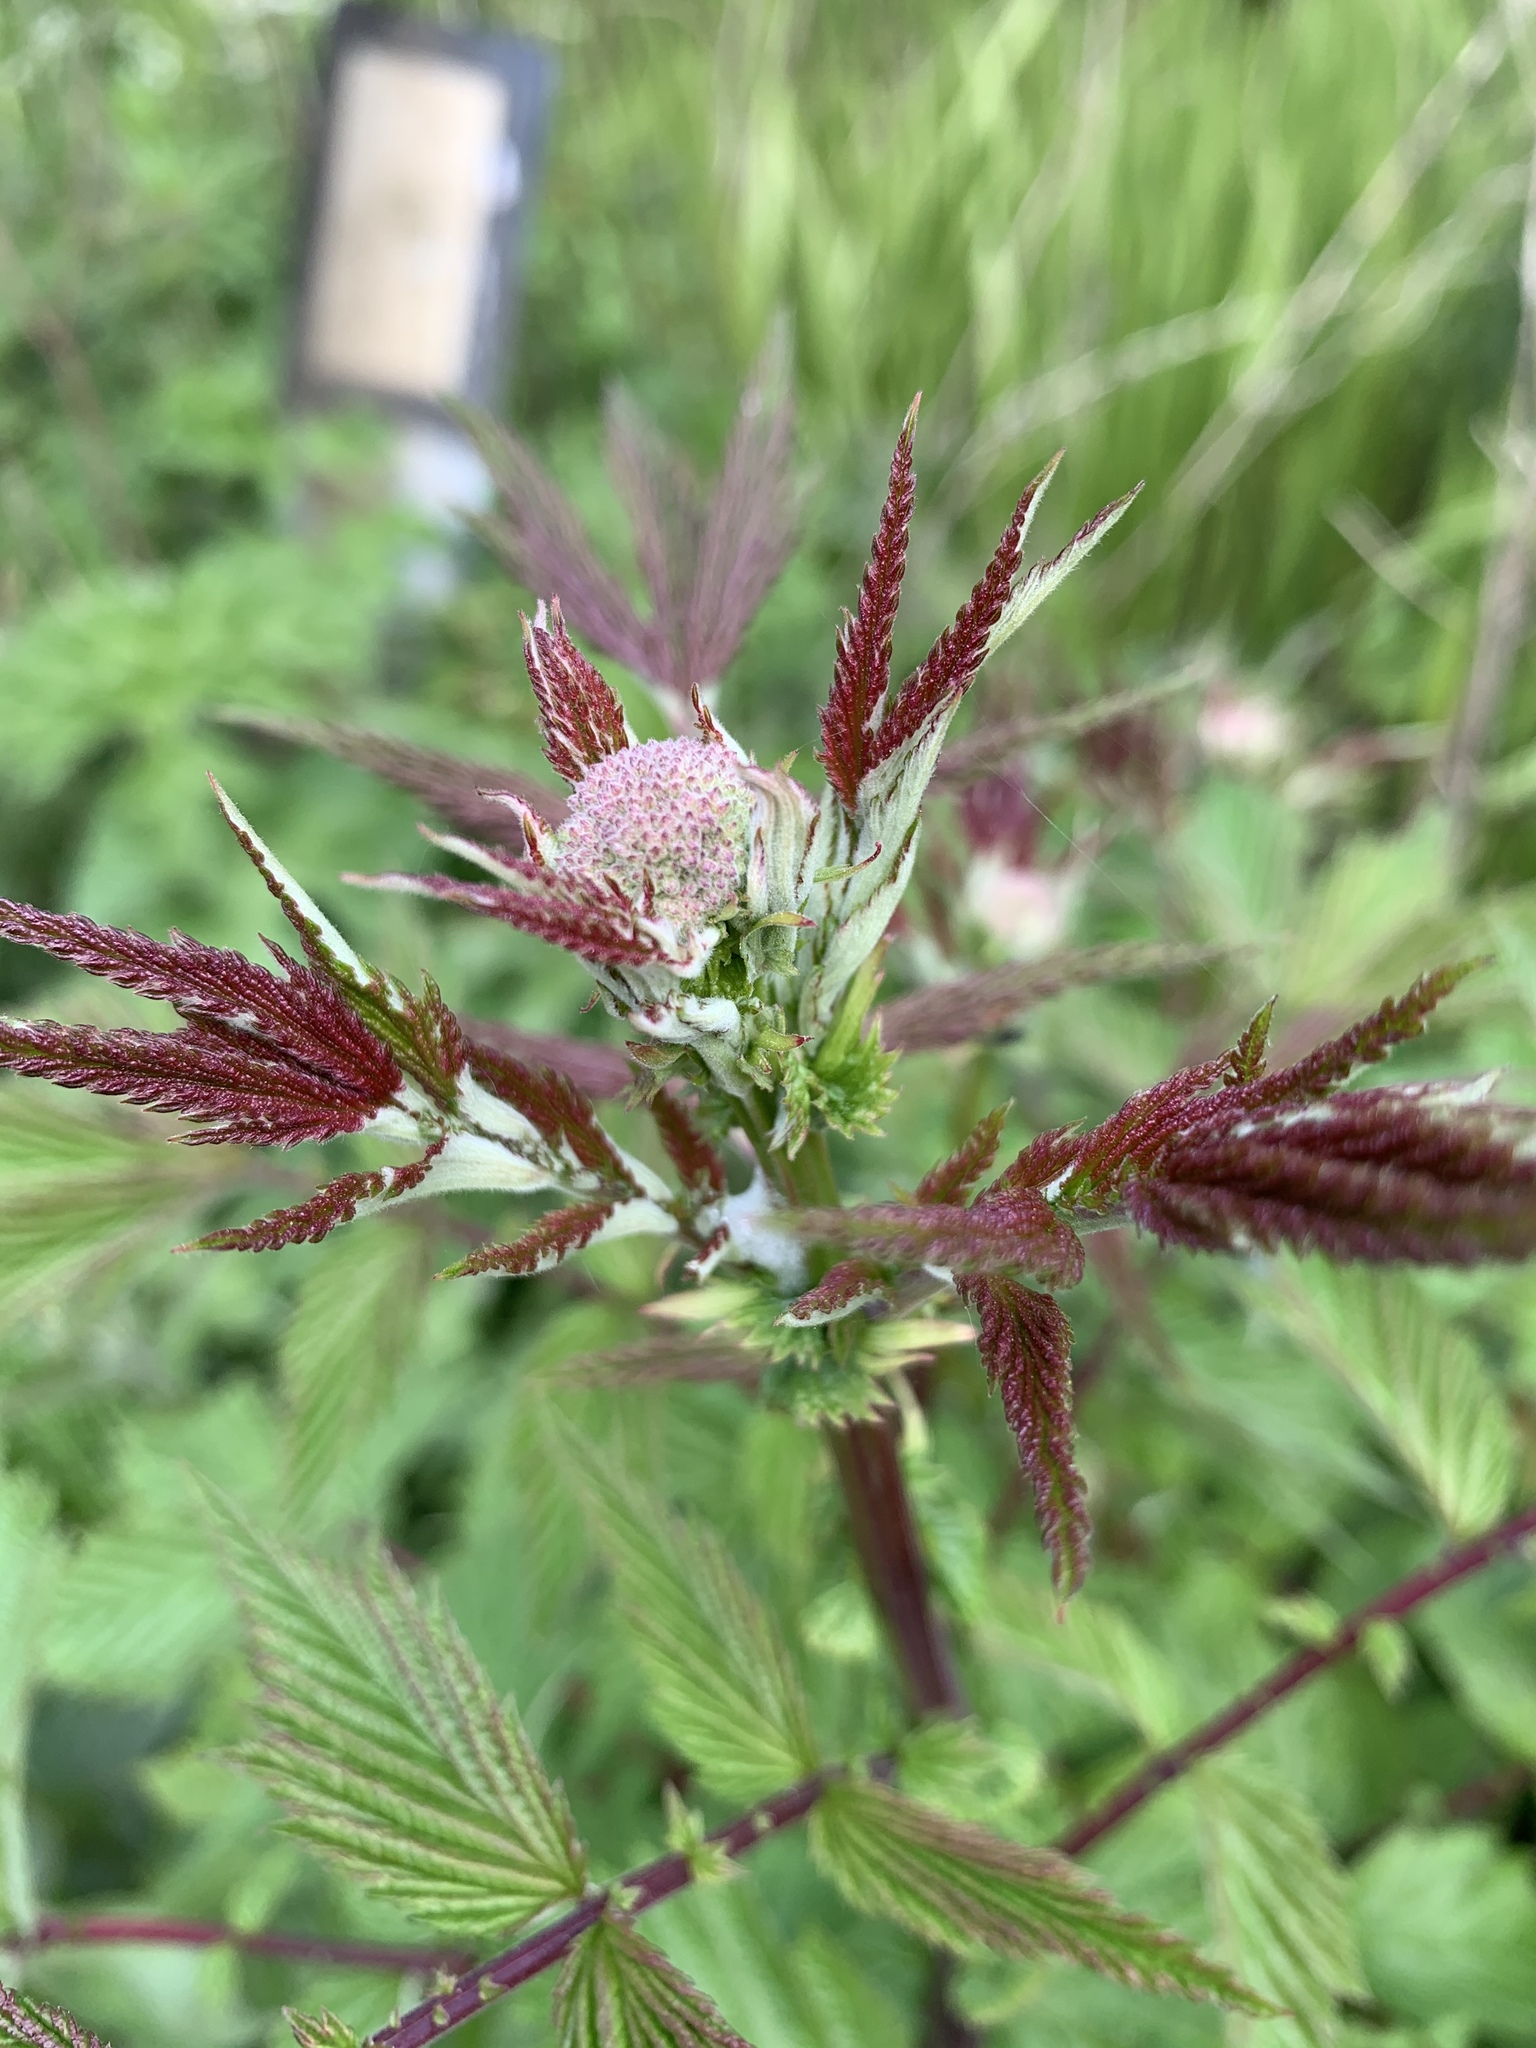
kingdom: Plantae
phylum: Tracheophyta
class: Magnoliopsida
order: Rosales
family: Rosaceae
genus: Filipendula
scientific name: Filipendula ulmaria
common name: Meadowsweet
